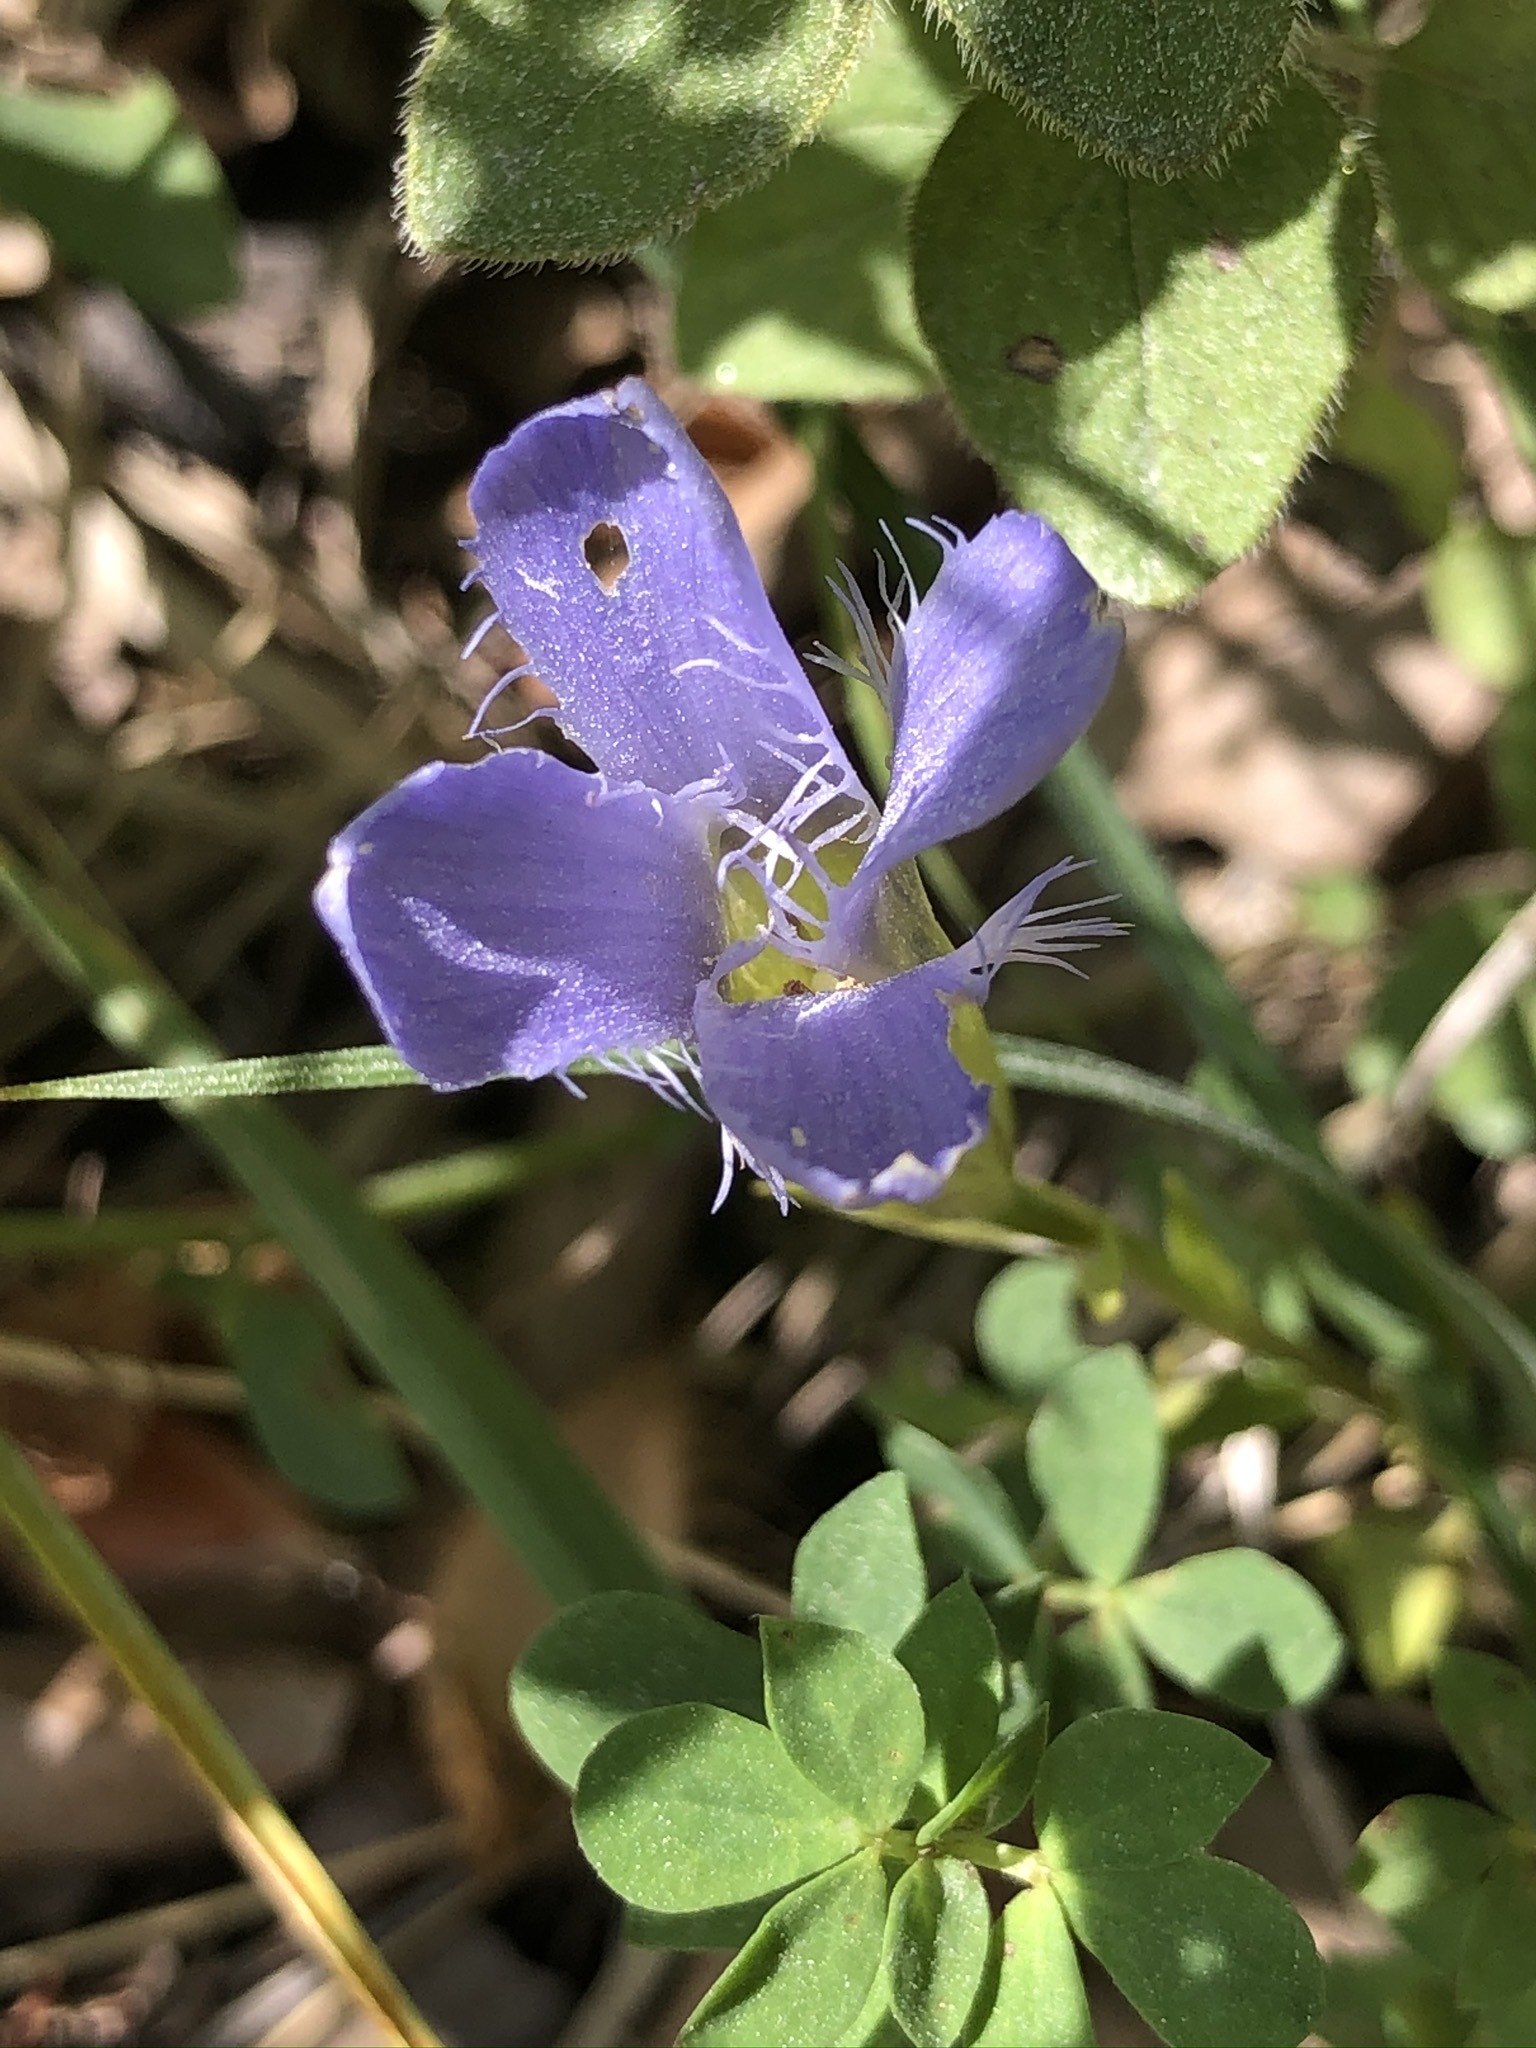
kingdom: Plantae
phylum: Tracheophyta
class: Magnoliopsida
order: Gentianales
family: Gentianaceae
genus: Gentianopsis
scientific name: Gentianopsis ciliata
